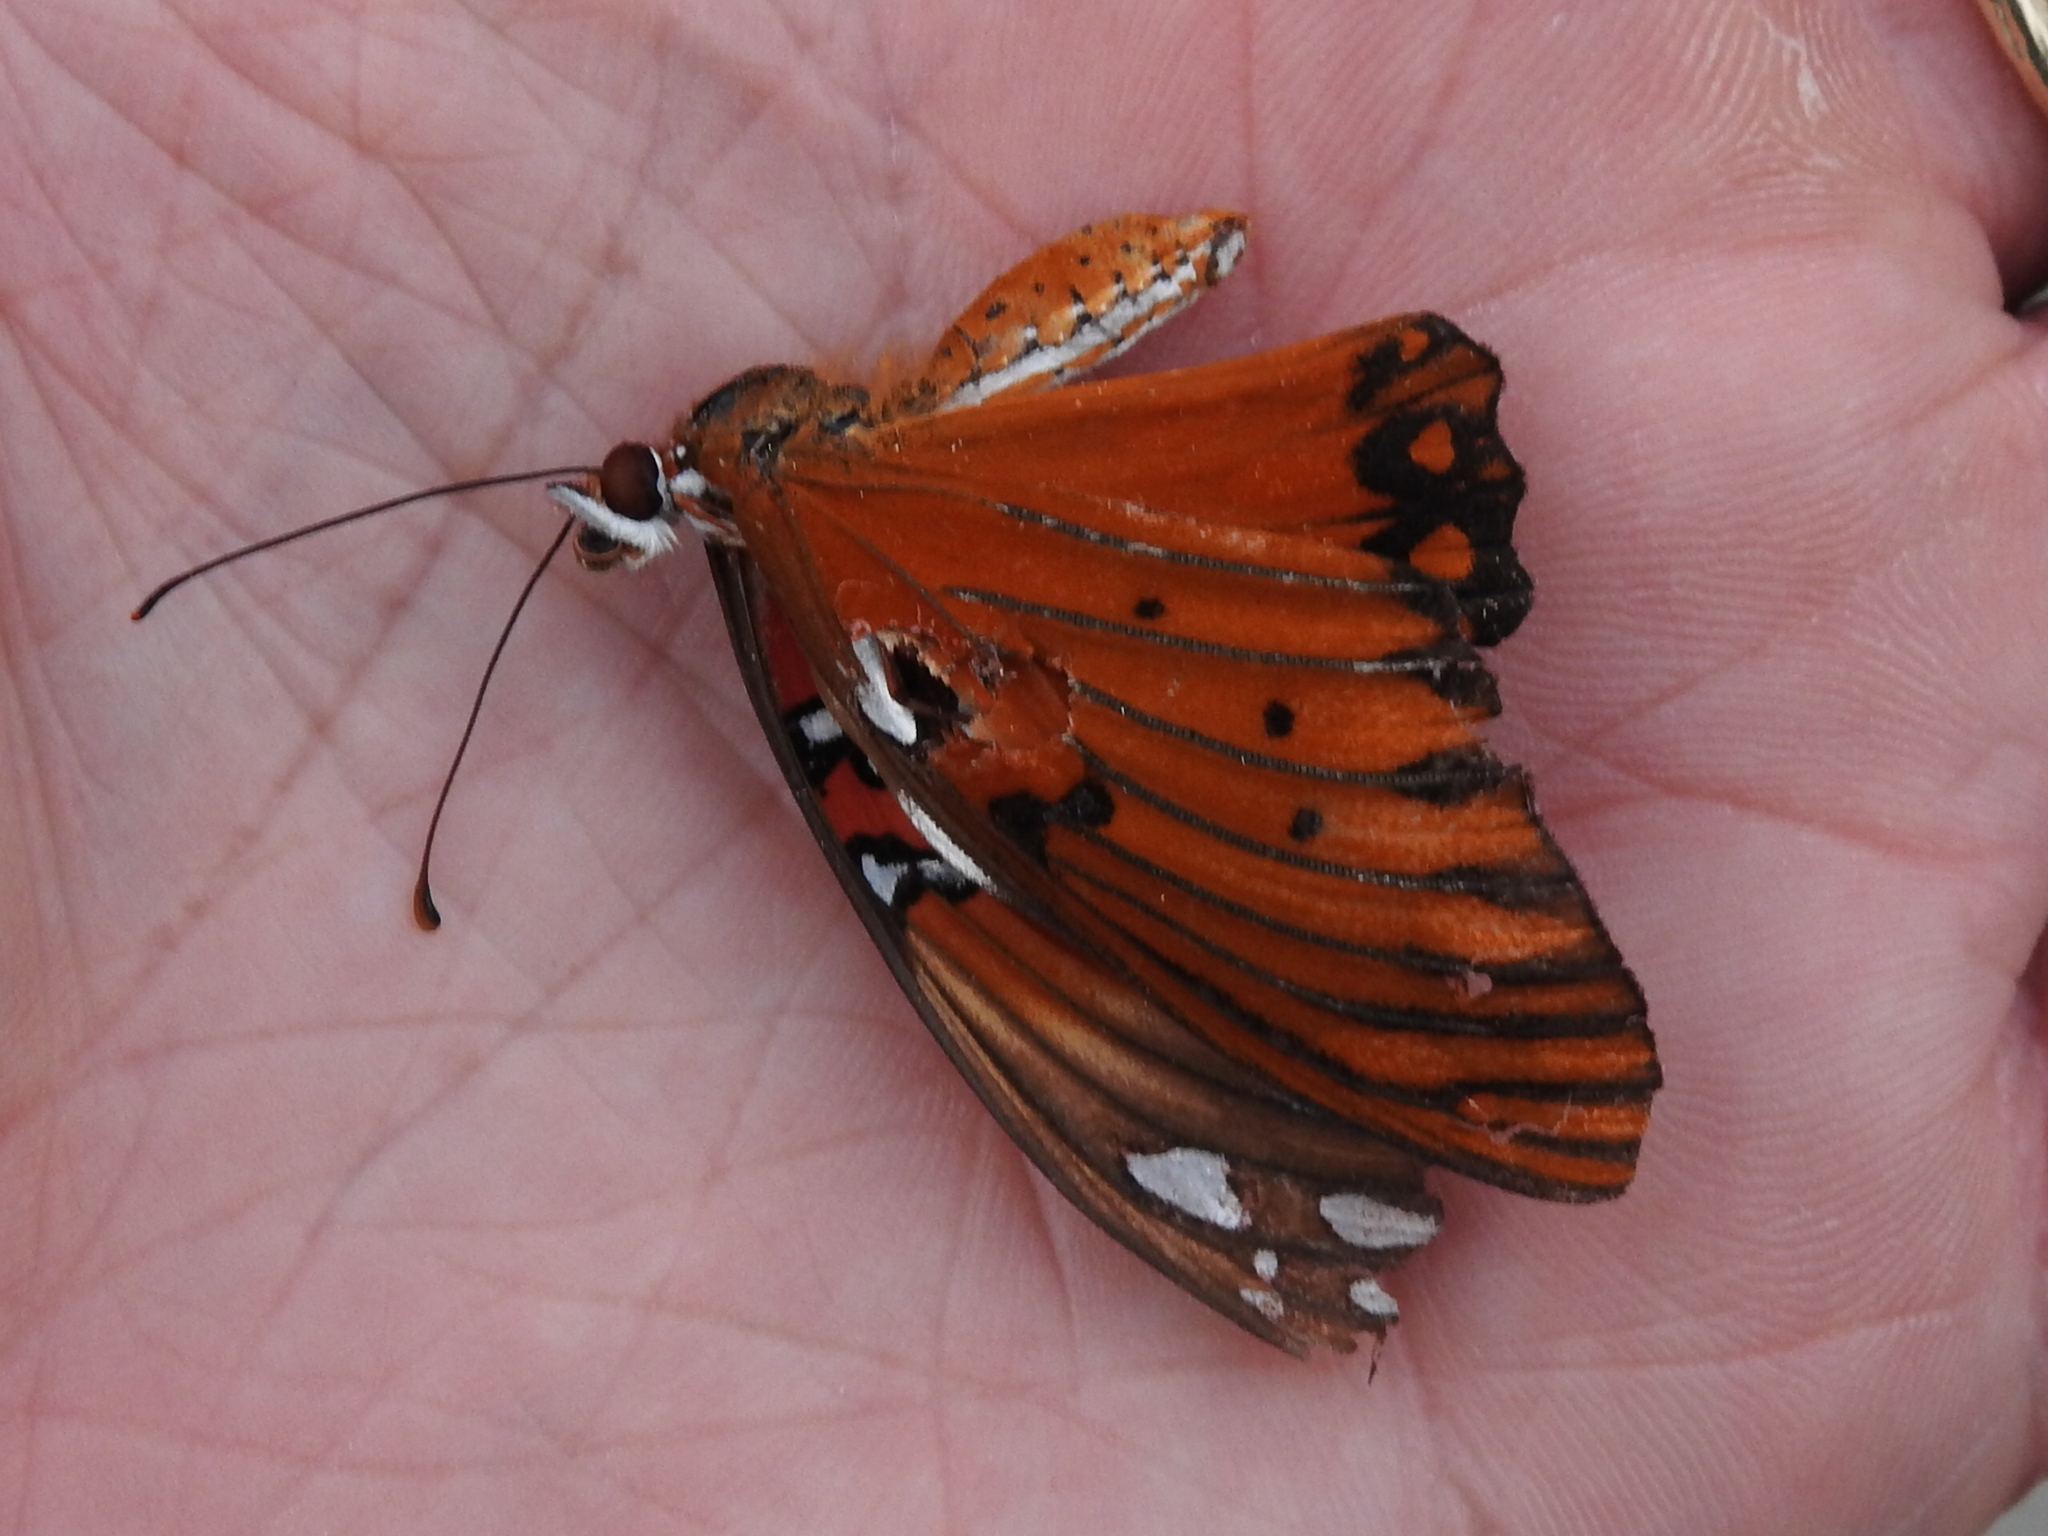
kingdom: Animalia
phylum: Arthropoda
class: Insecta
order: Lepidoptera
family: Nymphalidae
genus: Dione
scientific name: Dione vanillae
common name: Gulf fritillary
